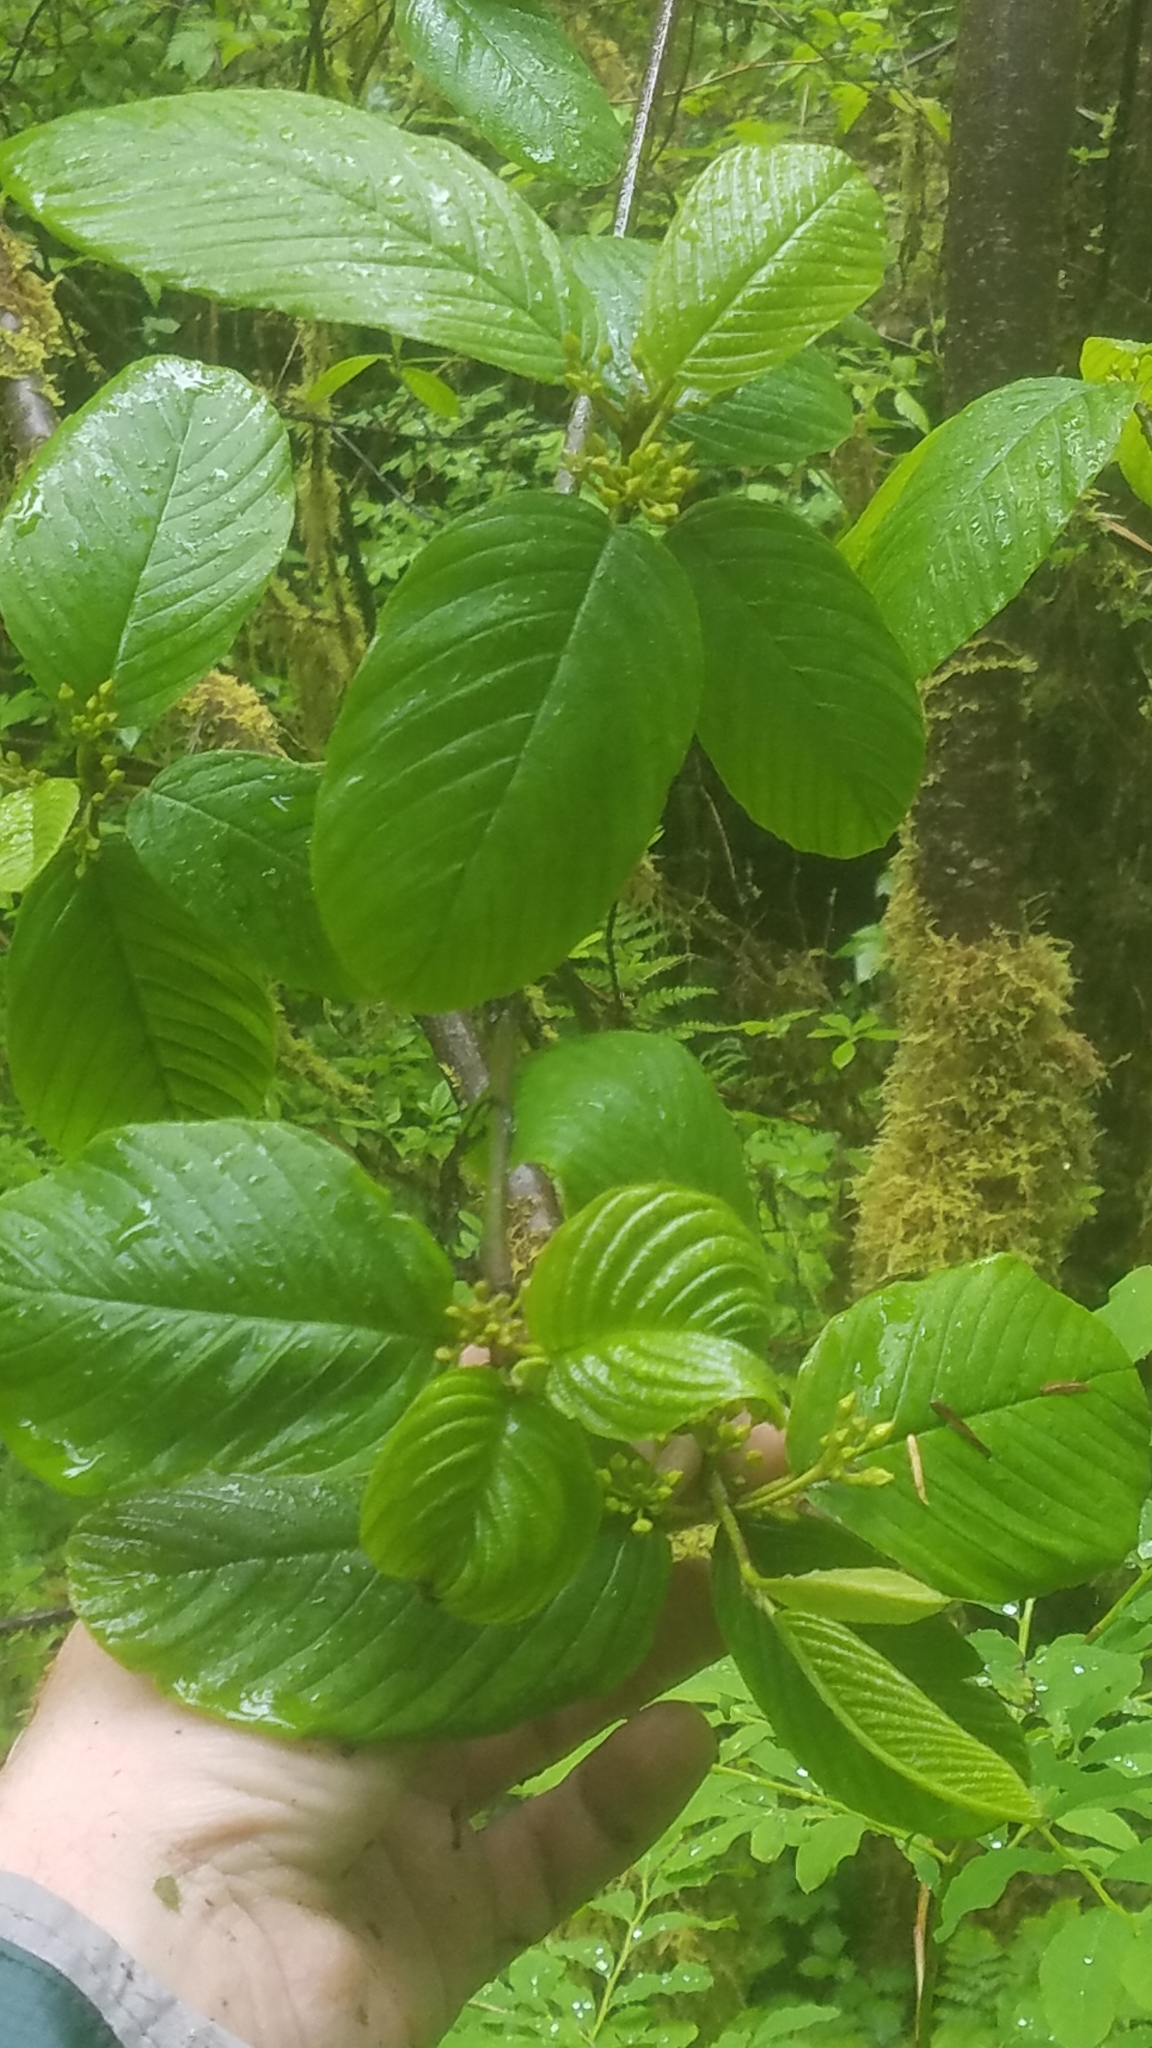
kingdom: Plantae
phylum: Tracheophyta
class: Magnoliopsida
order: Rosales
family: Rhamnaceae
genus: Frangula
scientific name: Frangula purshiana
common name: Cascara buckthorn
